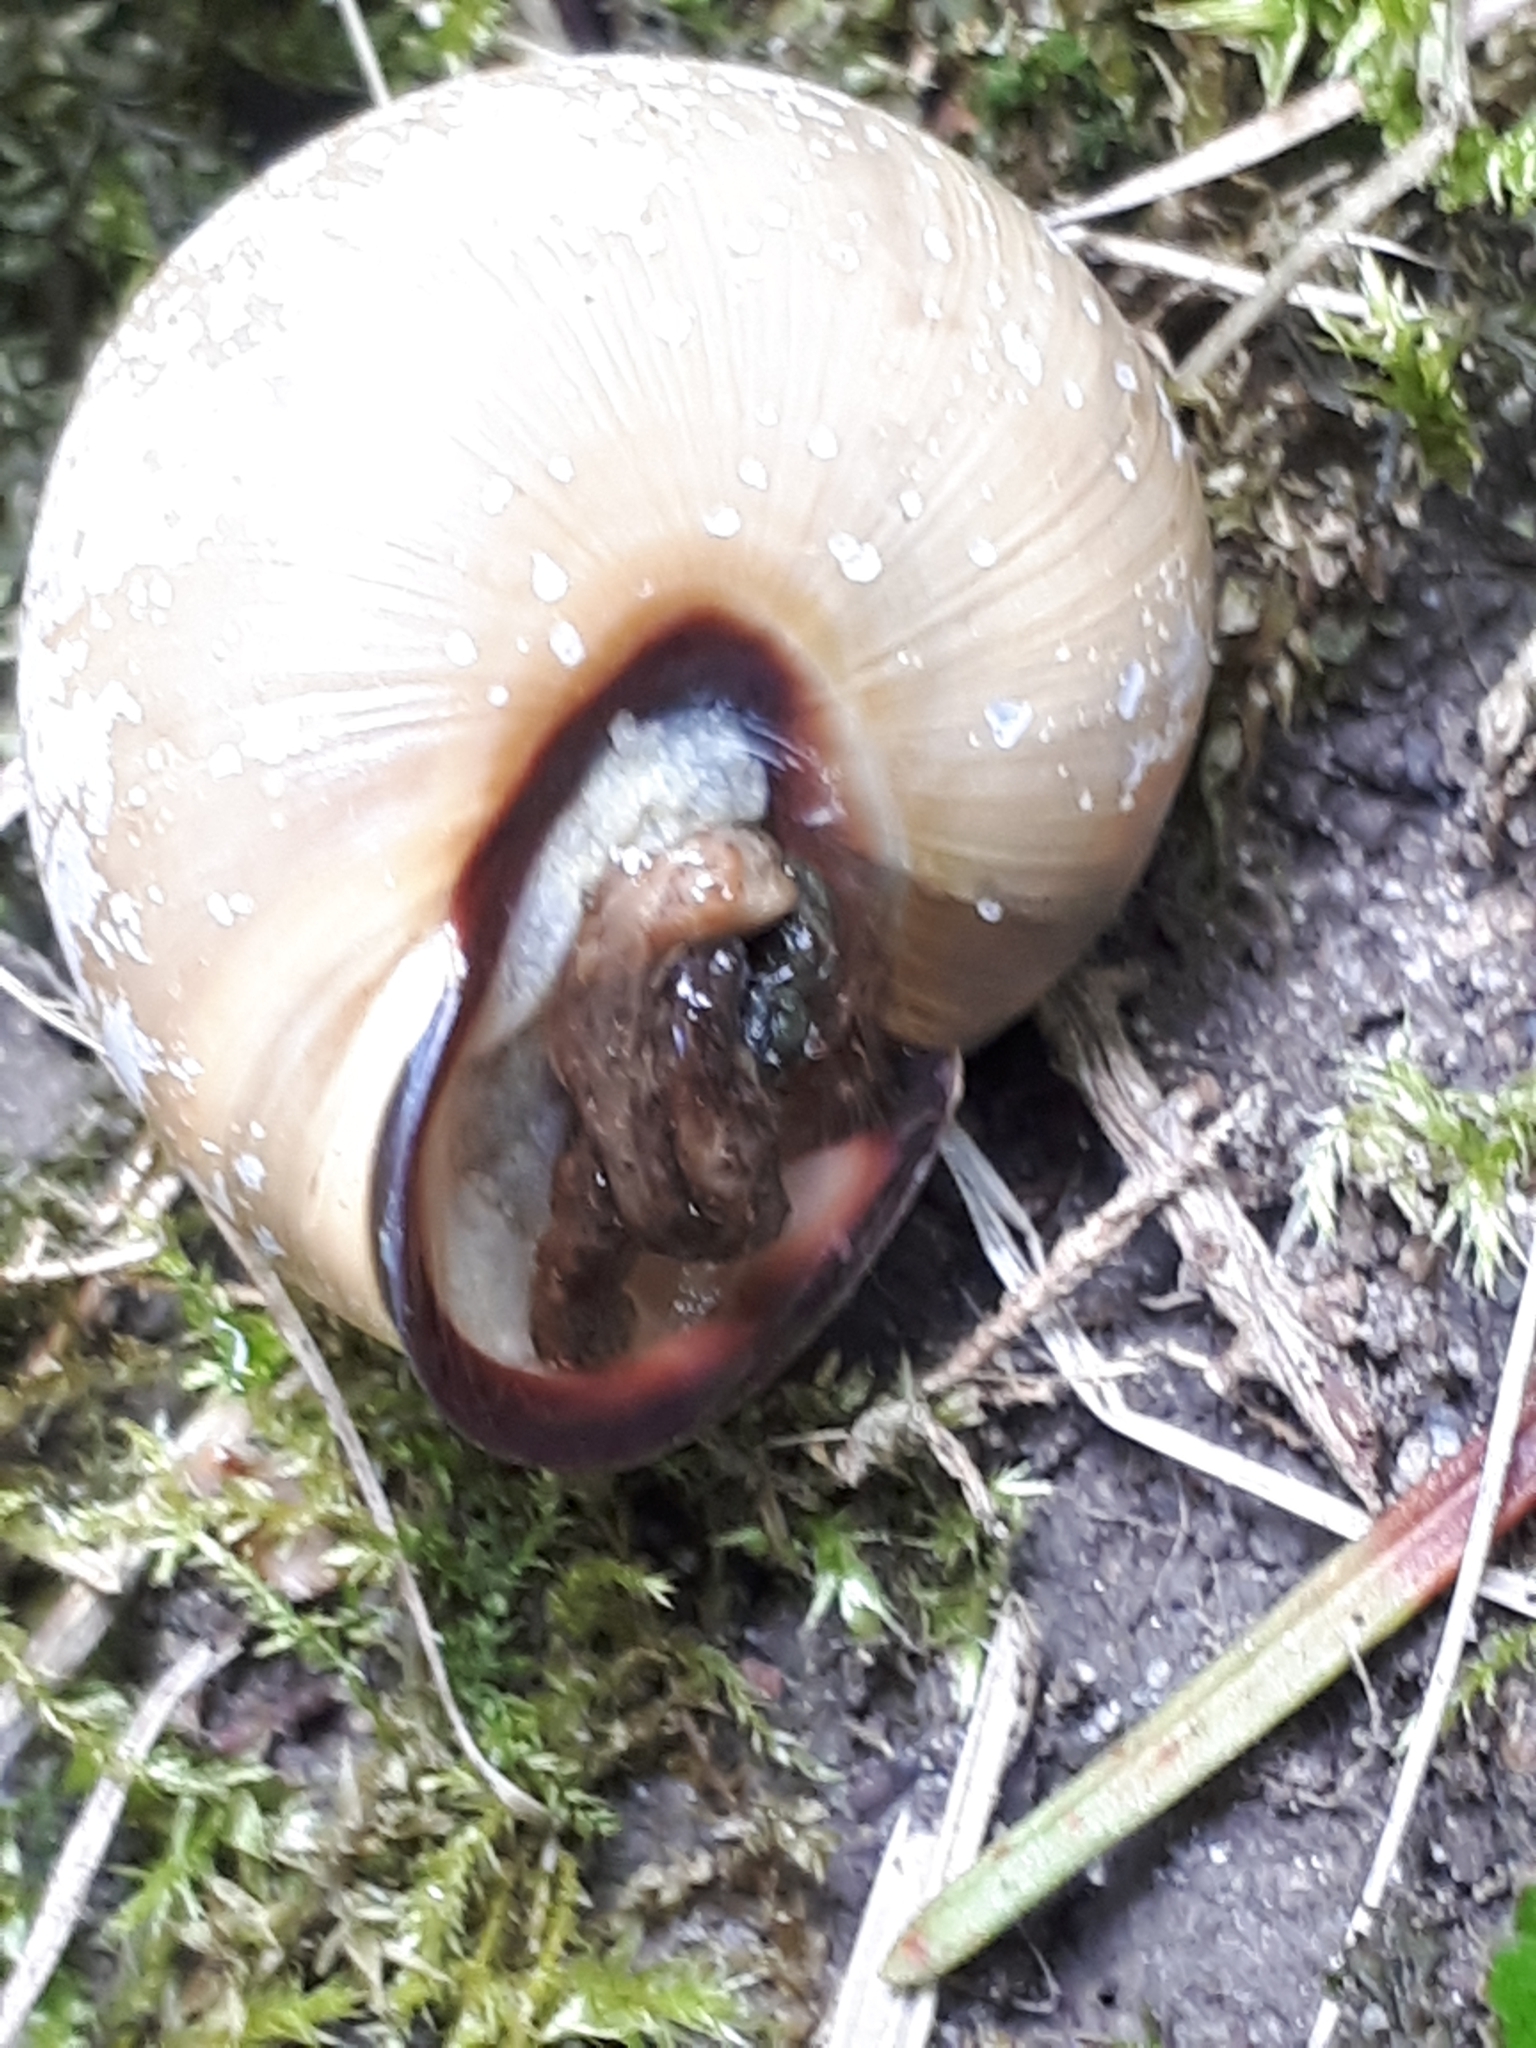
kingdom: Animalia
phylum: Mollusca
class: Gastropoda
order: Stylommatophora
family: Helicidae
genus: Cepaea
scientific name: Cepaea nemoralis
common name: Grovesnail
